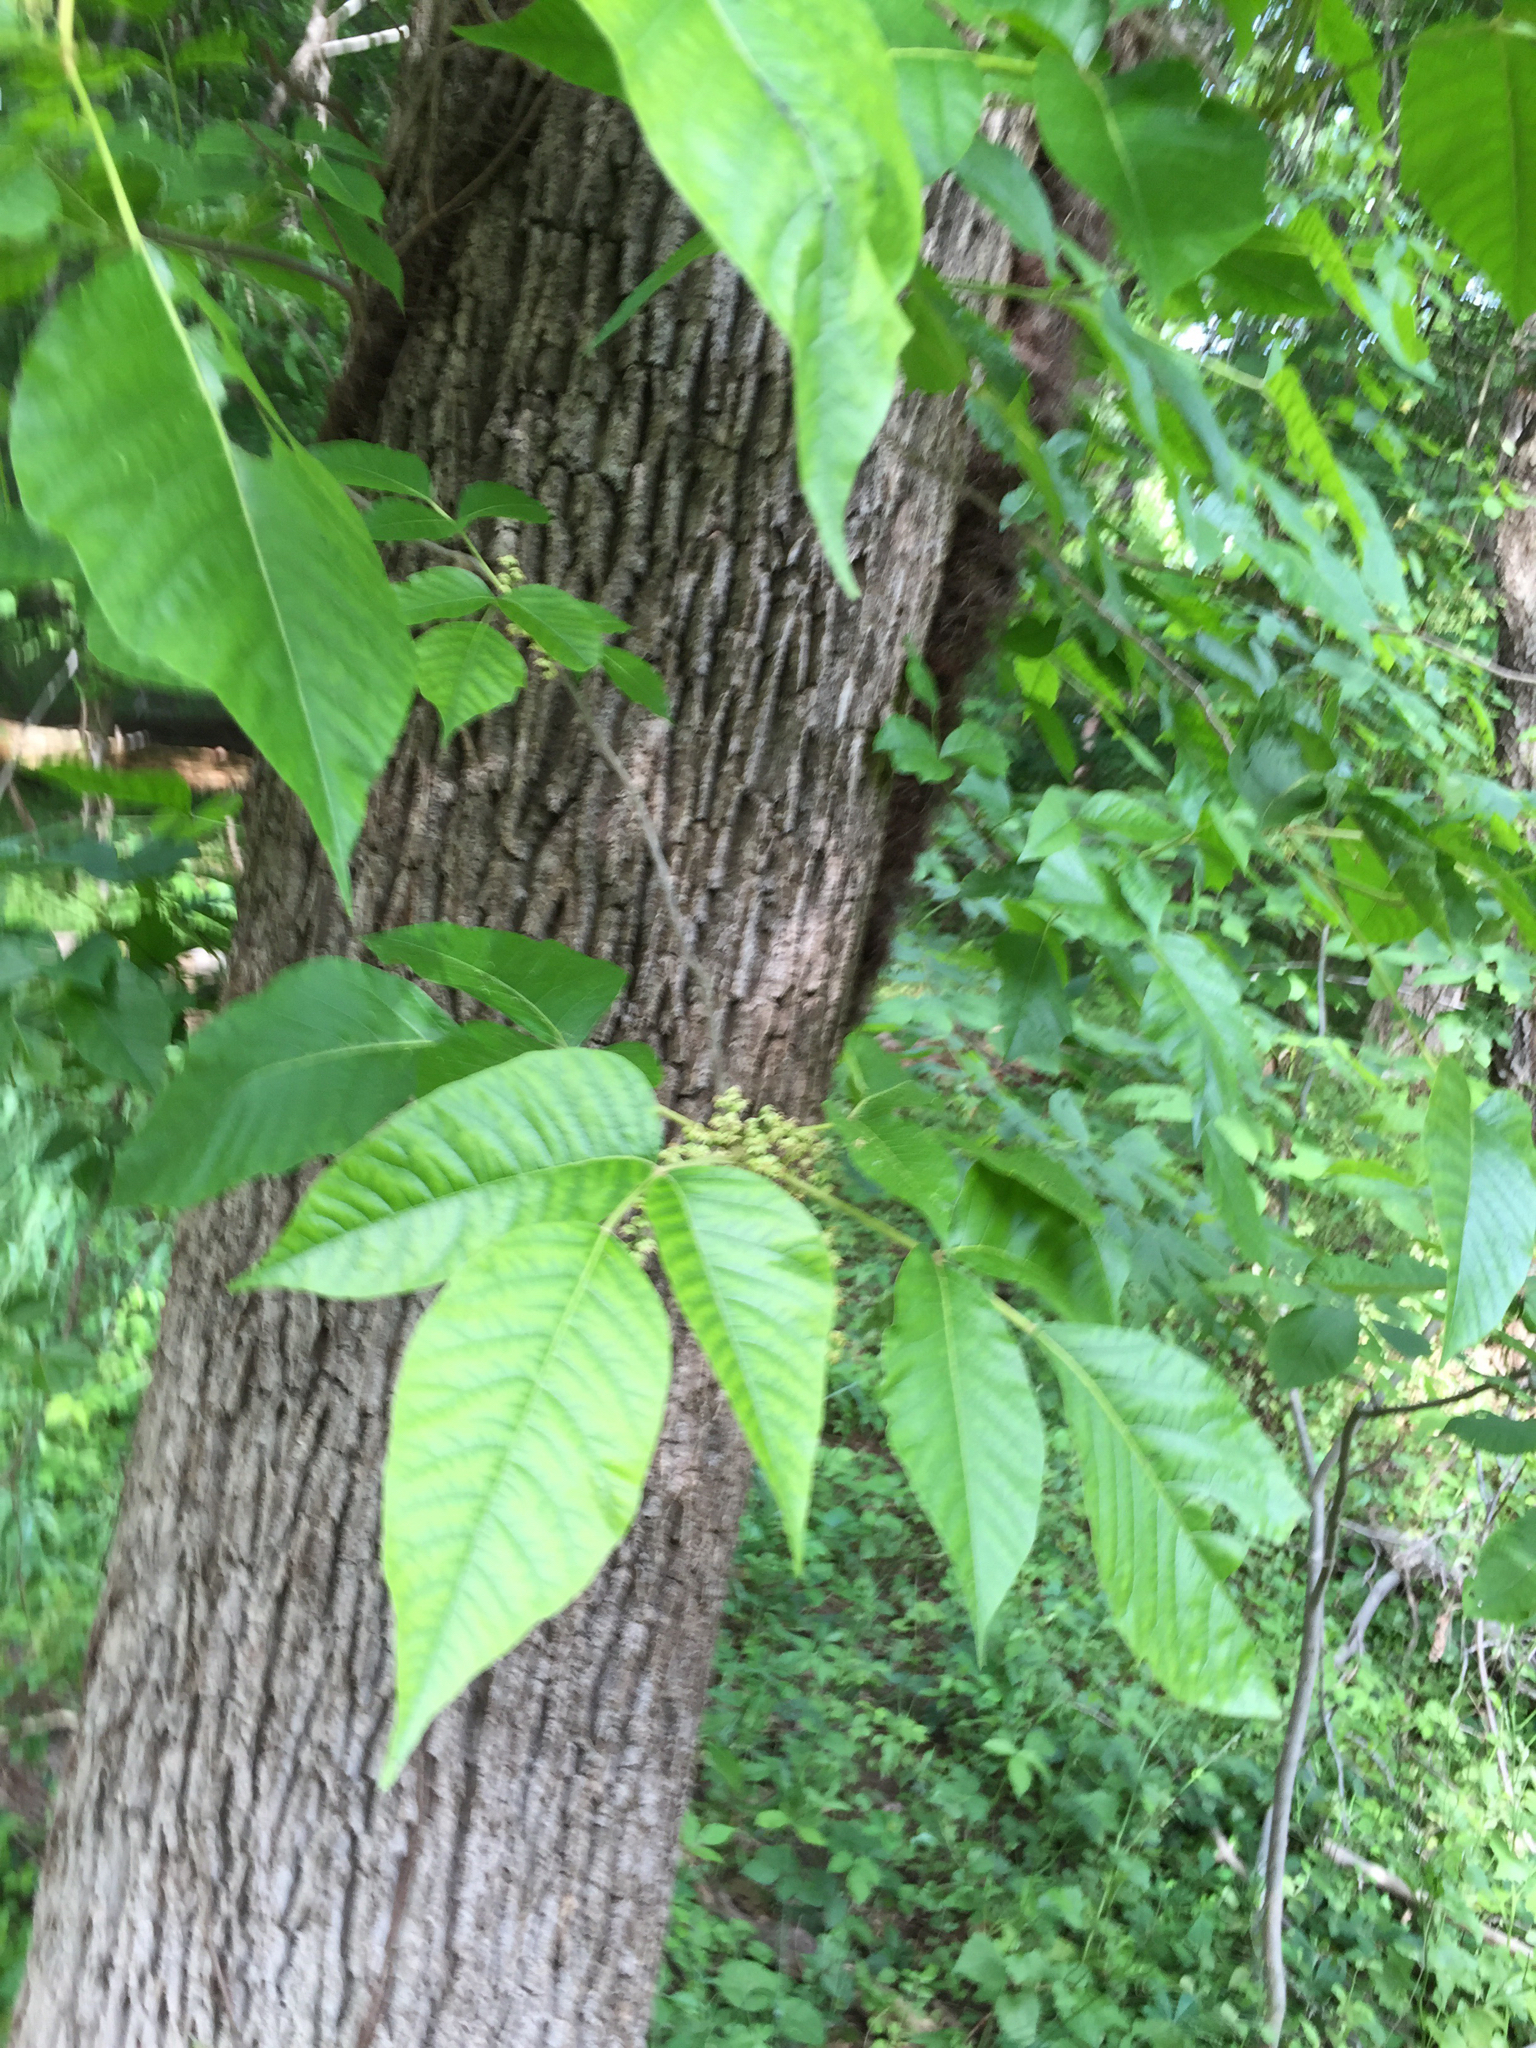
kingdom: Plantae
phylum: Tracheophyta
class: Magnoliopsida
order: Sapindales
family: Anacardiaceae
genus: Toxicodendron
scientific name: Toxicodendron radicans
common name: Poison ivy
